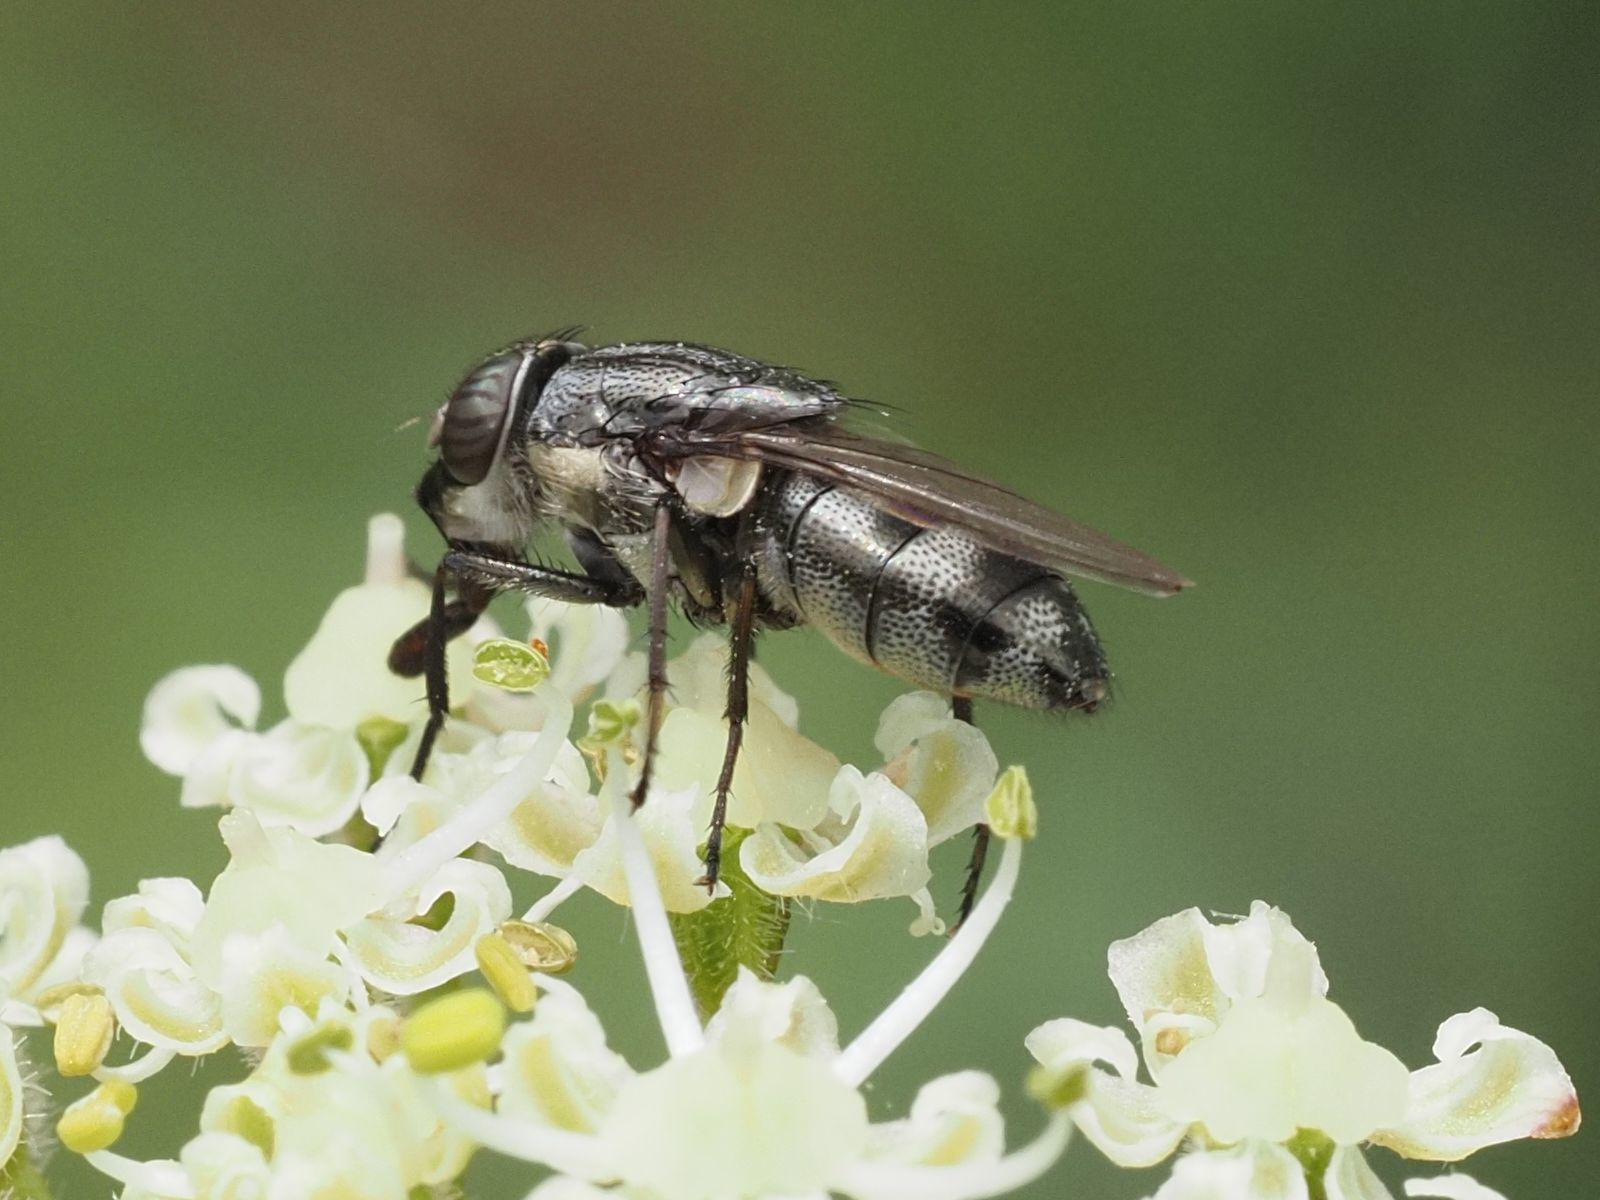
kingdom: Animalia
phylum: Arthropoda
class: Insecta
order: Diptera
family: Calliphoridae
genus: Stomorhina
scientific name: Stomorhina lunata
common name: Locust blowfly
